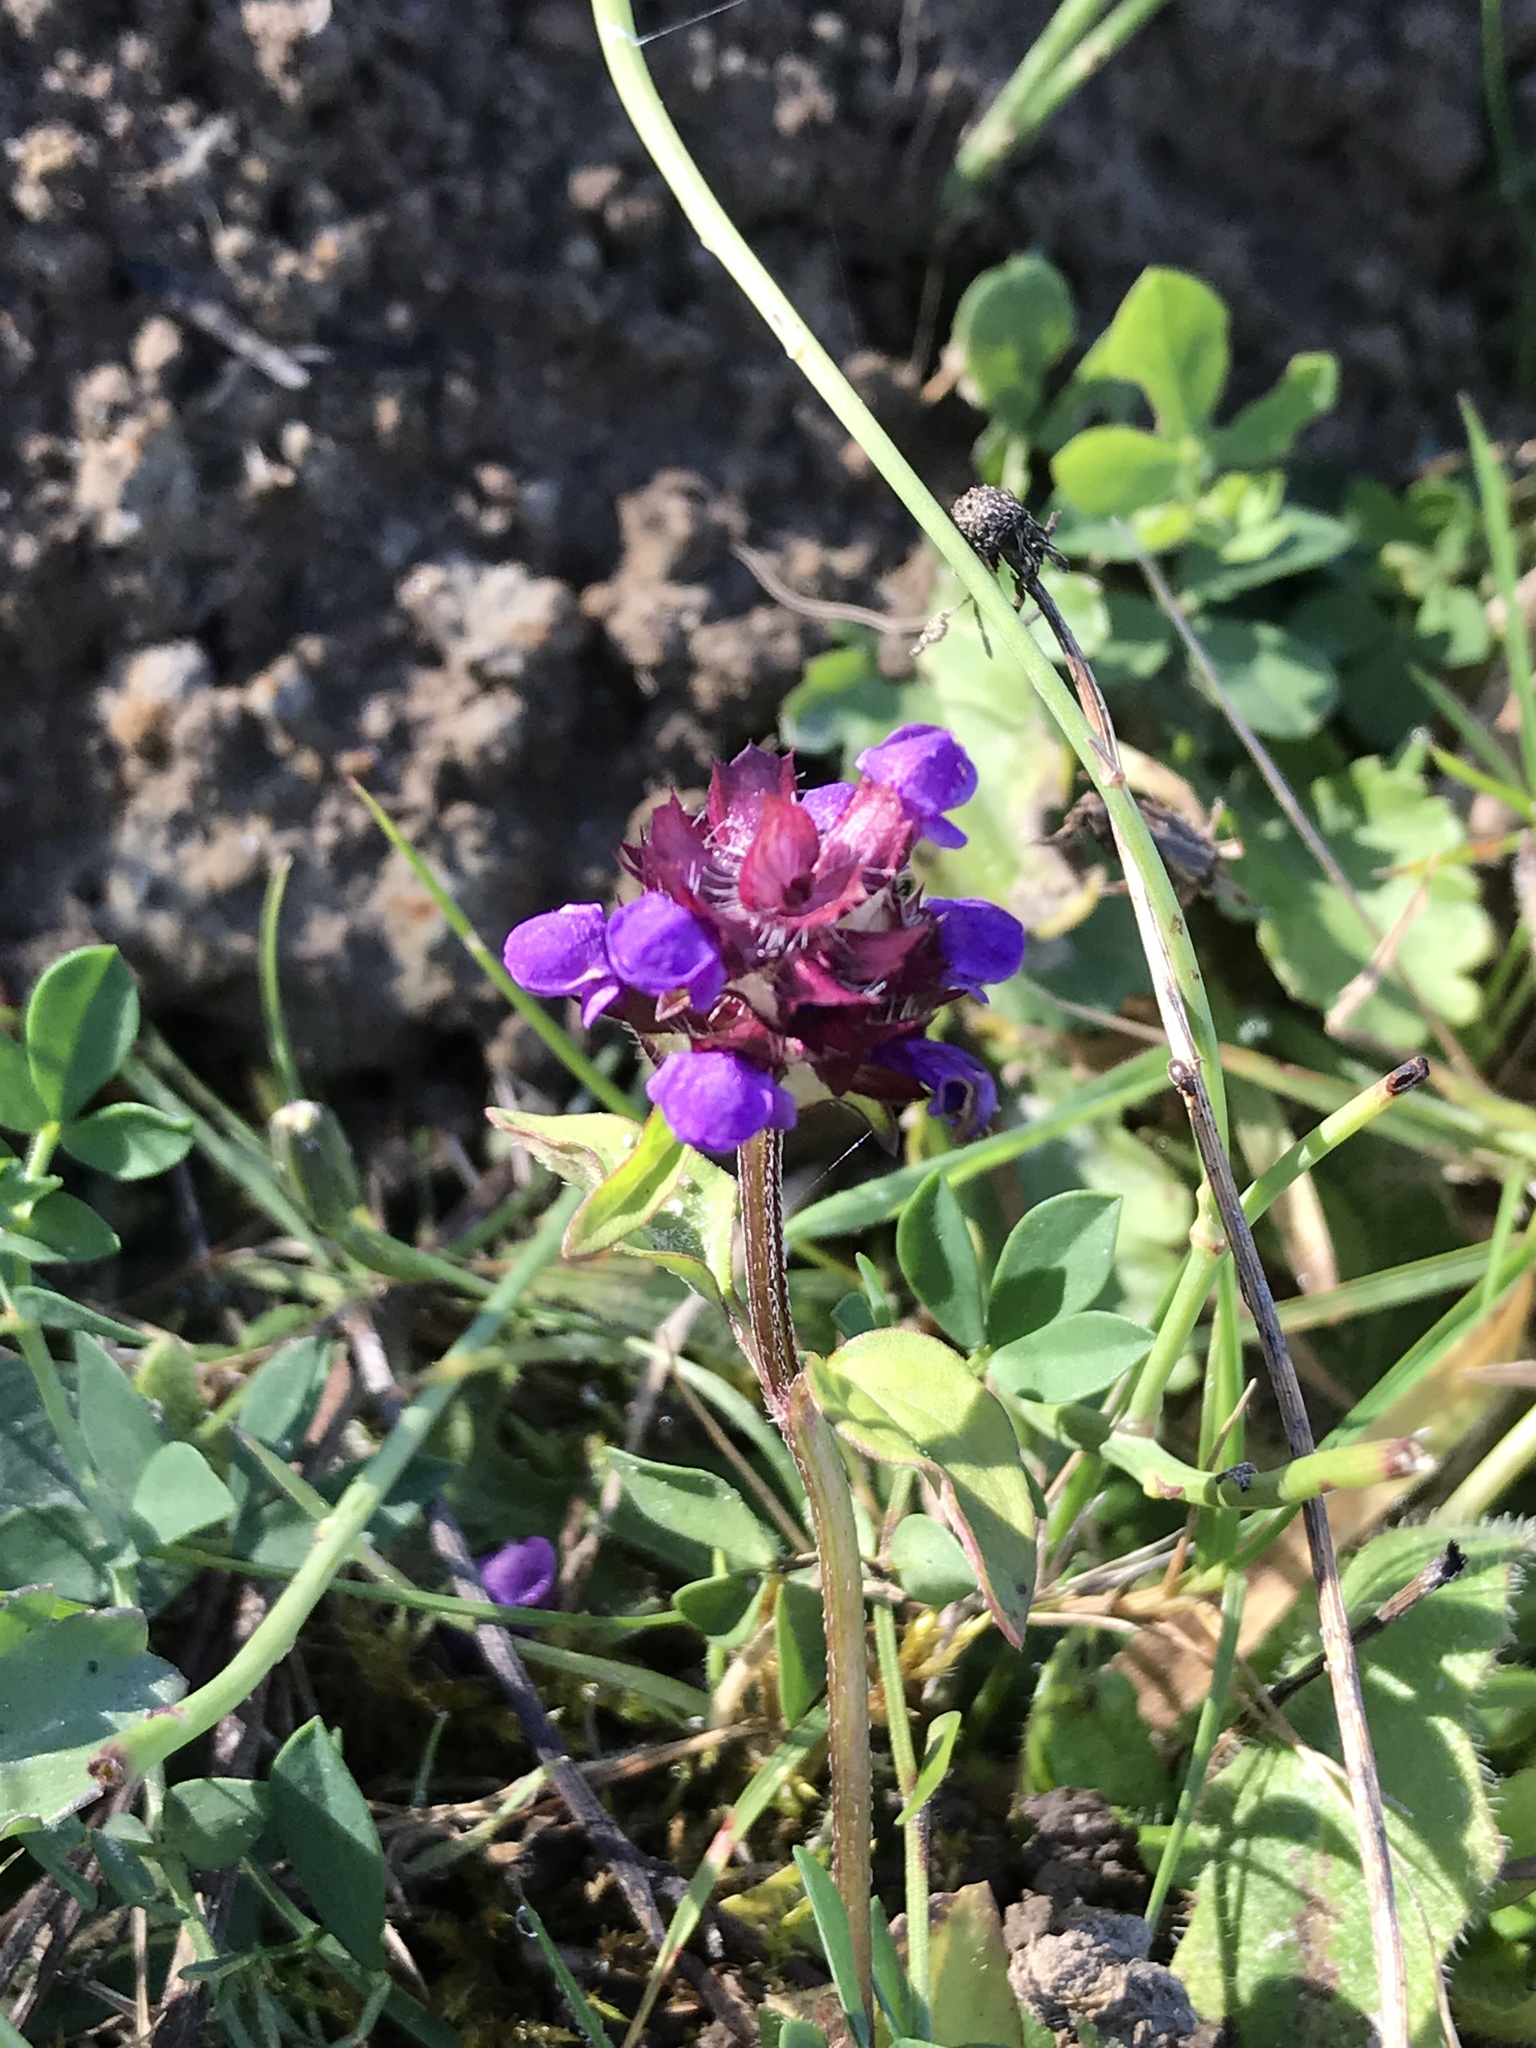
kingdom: Plantae
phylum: Tracheophyta
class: Magnoliopsida
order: Lamiales
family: Lamiaceae
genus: Prunella
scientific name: Prunella vulgaris
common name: Heal-all
